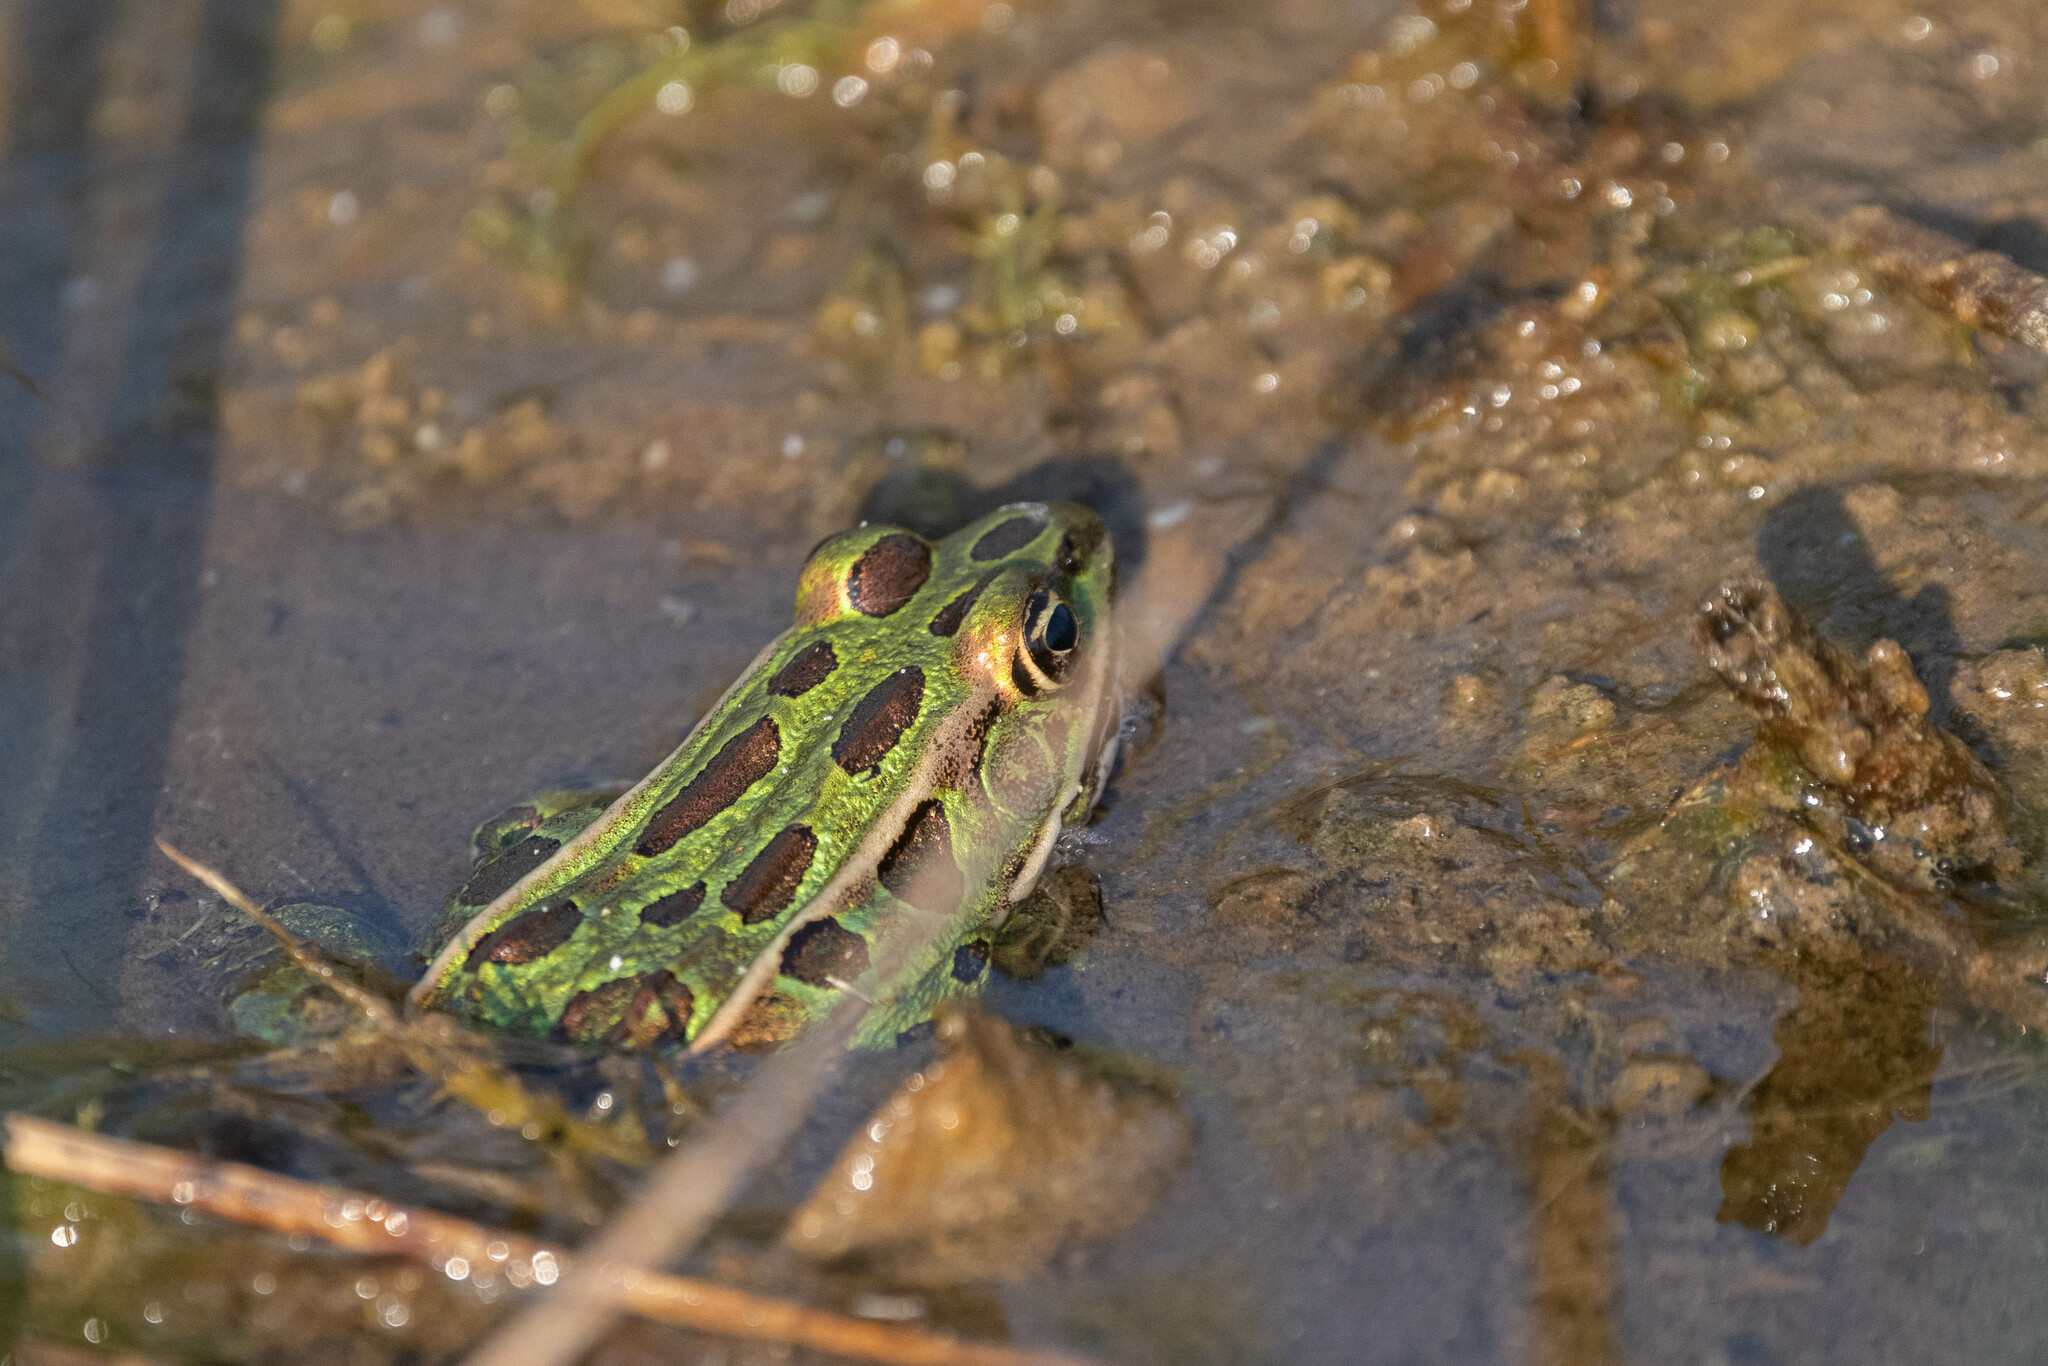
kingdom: Animalia
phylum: Chordata
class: Amphibia
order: Anura
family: Ranidae
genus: Lithobates
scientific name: Lithobates pipiens
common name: Northern leopard frog
